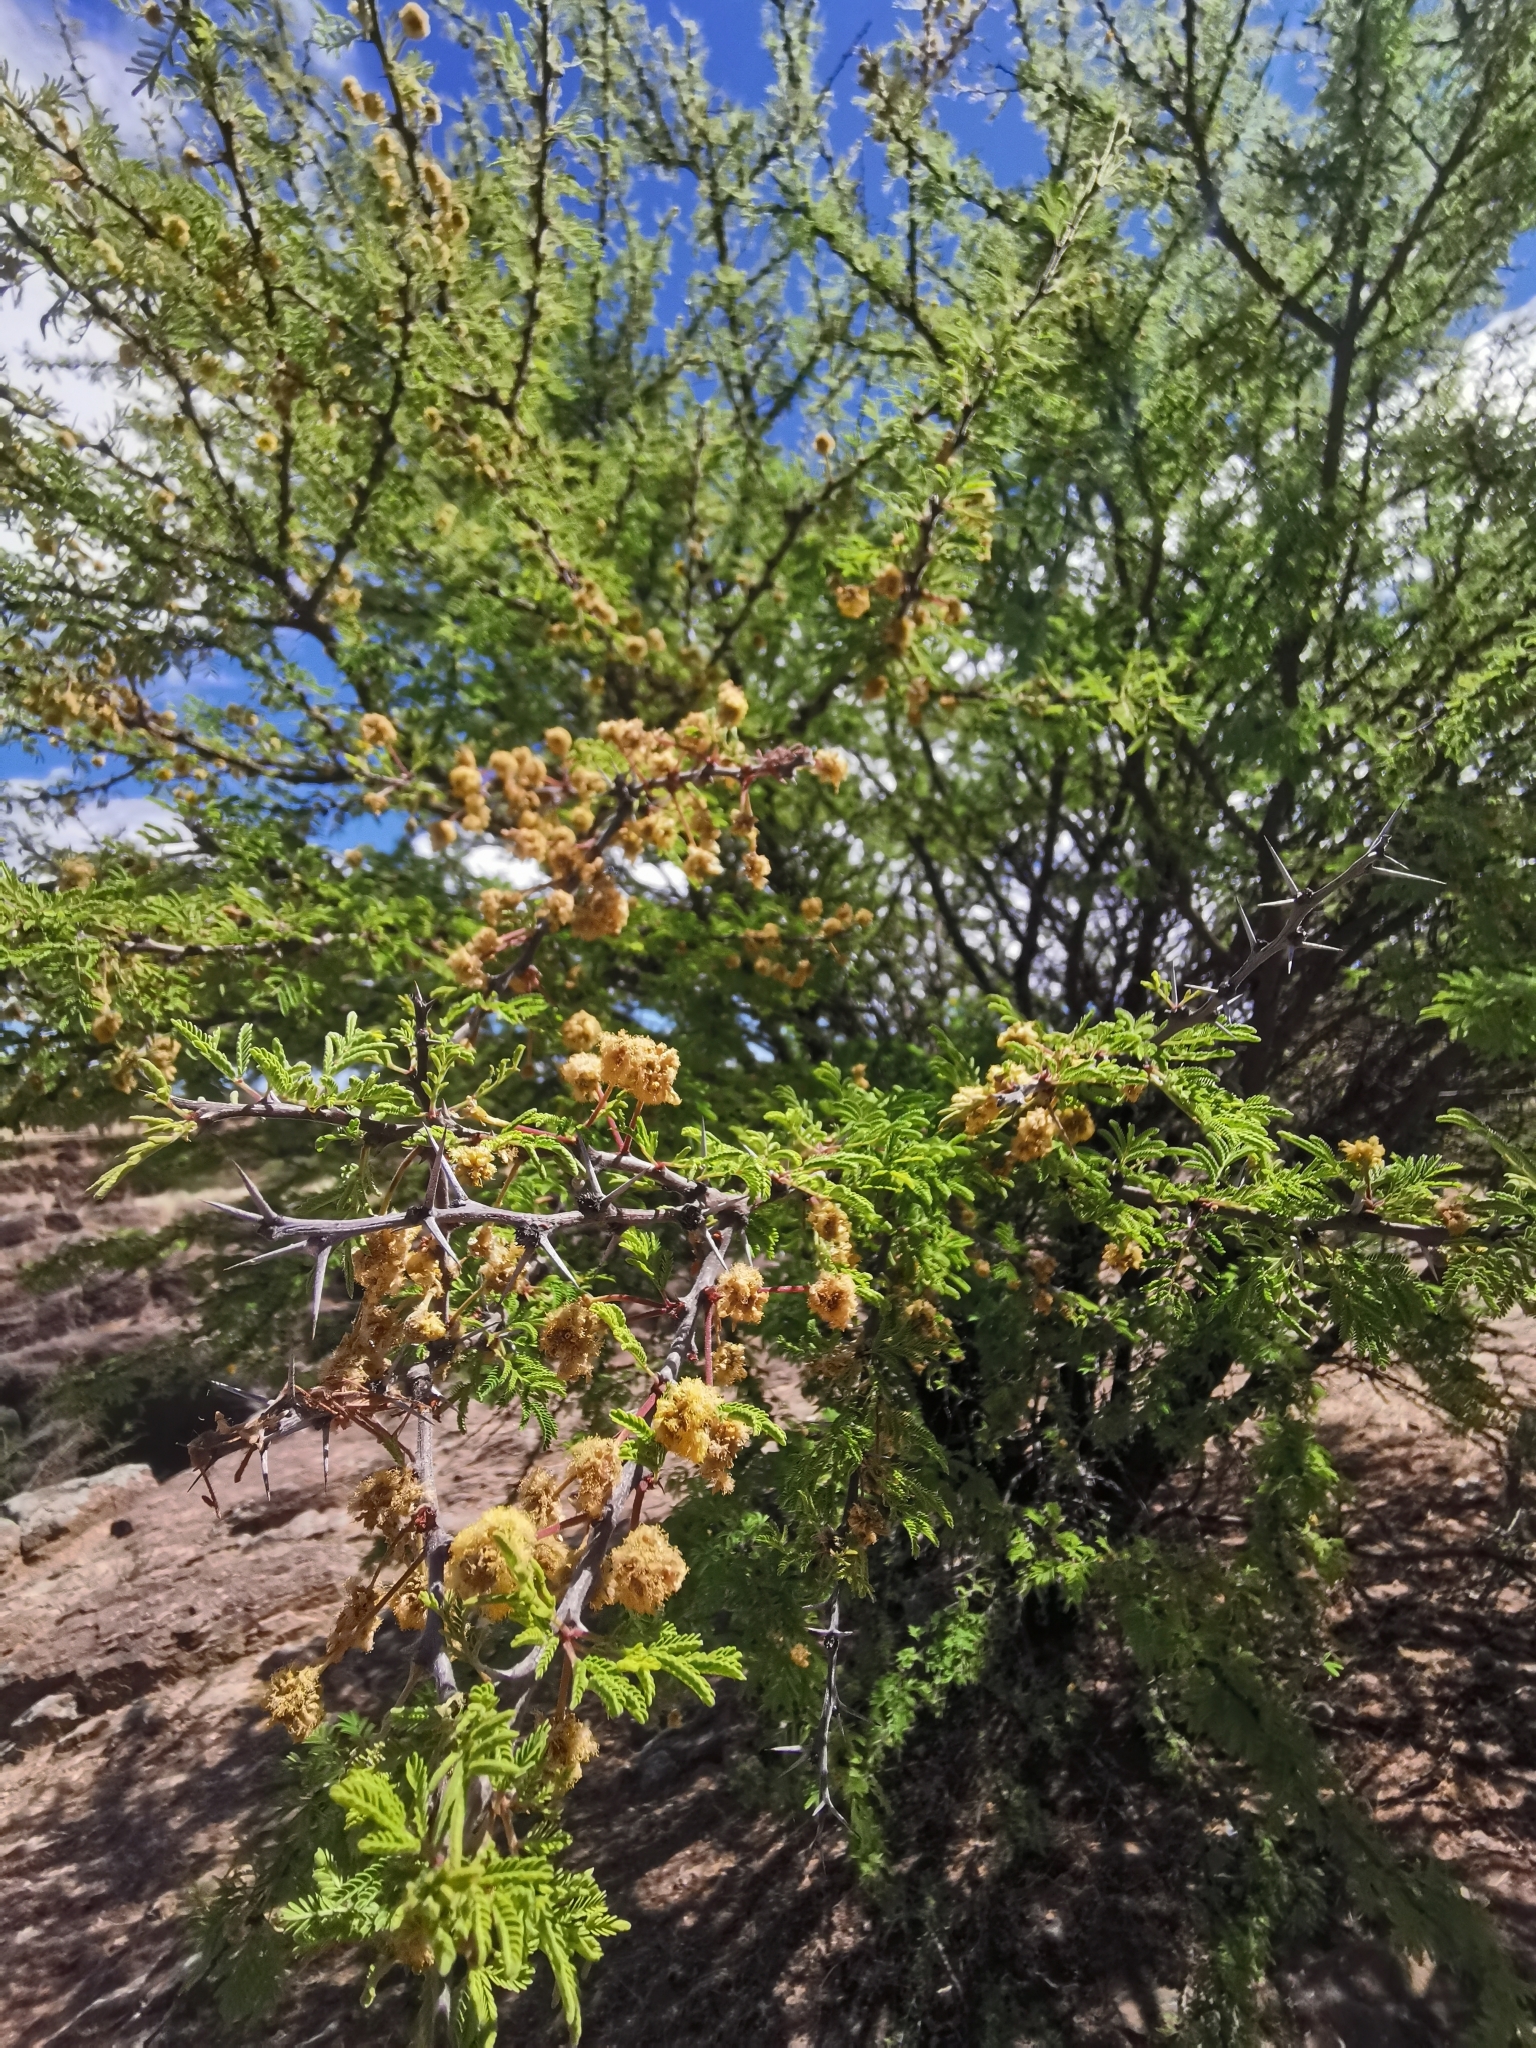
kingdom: Plantae
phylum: Tracheophyta
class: Magnoliopsida
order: Fabales
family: Fabaceae
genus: Vachellia
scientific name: Vachellia schaffneri
